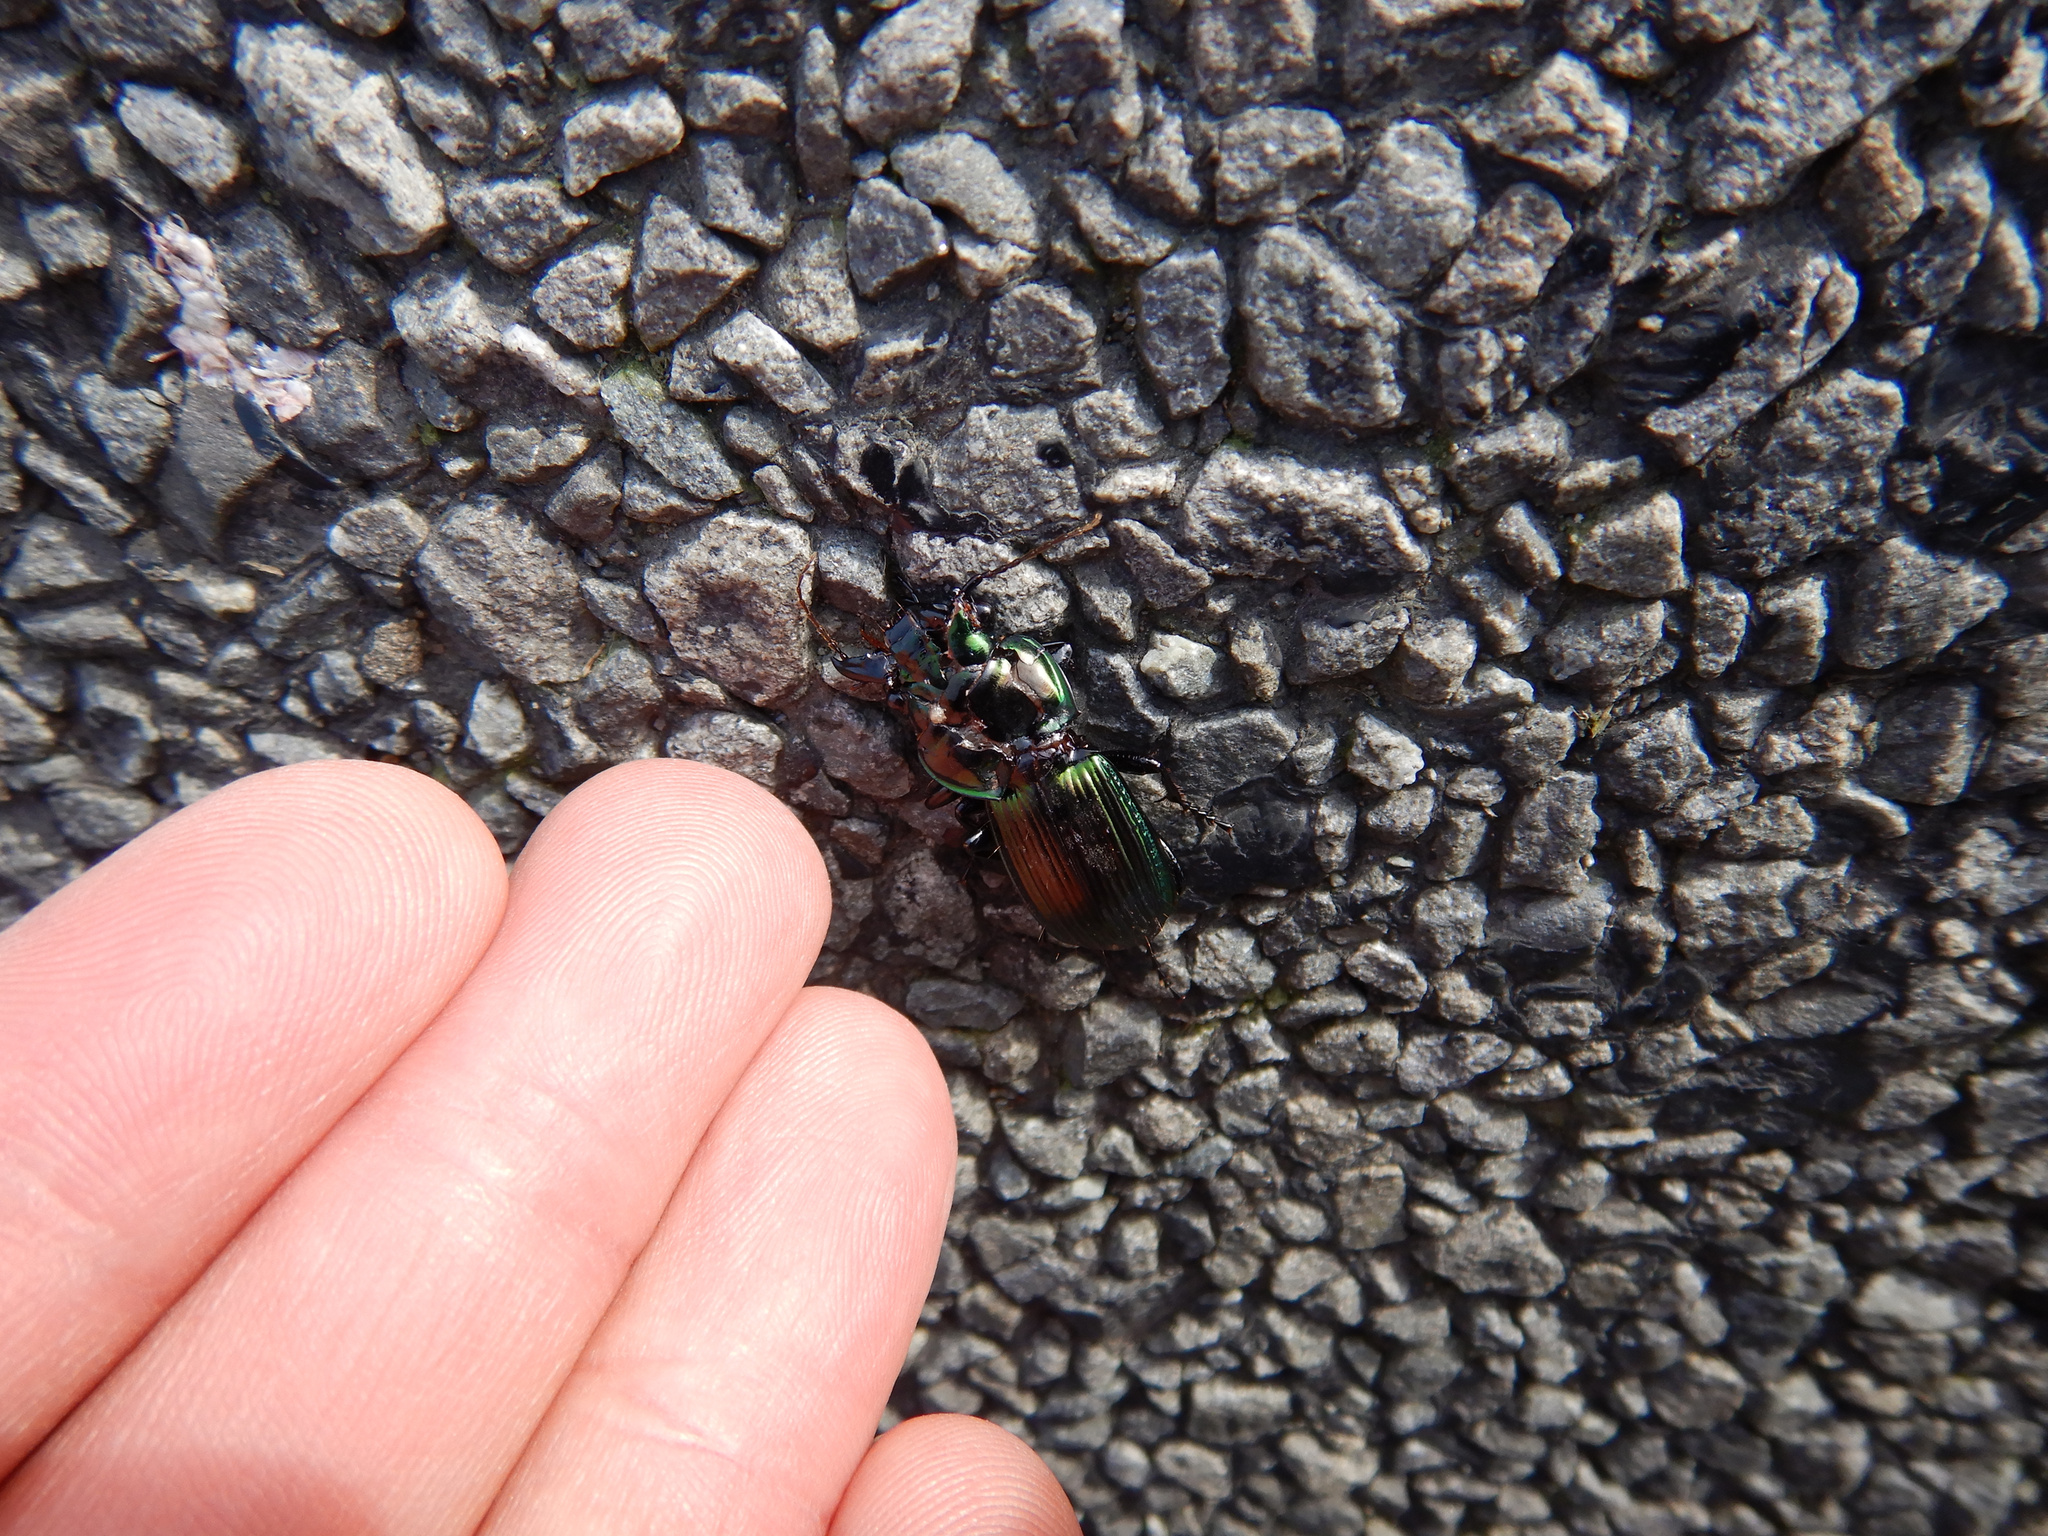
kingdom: Animalia
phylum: Arthropoda
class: Insecta
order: Coleoptera
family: Carabidae
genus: Megadromus
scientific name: Megadromus antarcticus
